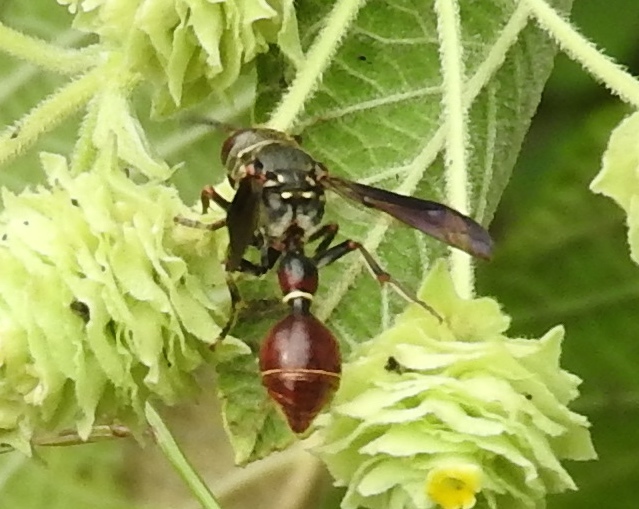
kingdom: Animalia
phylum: Arthropoda
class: Insecta
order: Hymenoptera
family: Eumenidae
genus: Zethus
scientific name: Zethus analis
